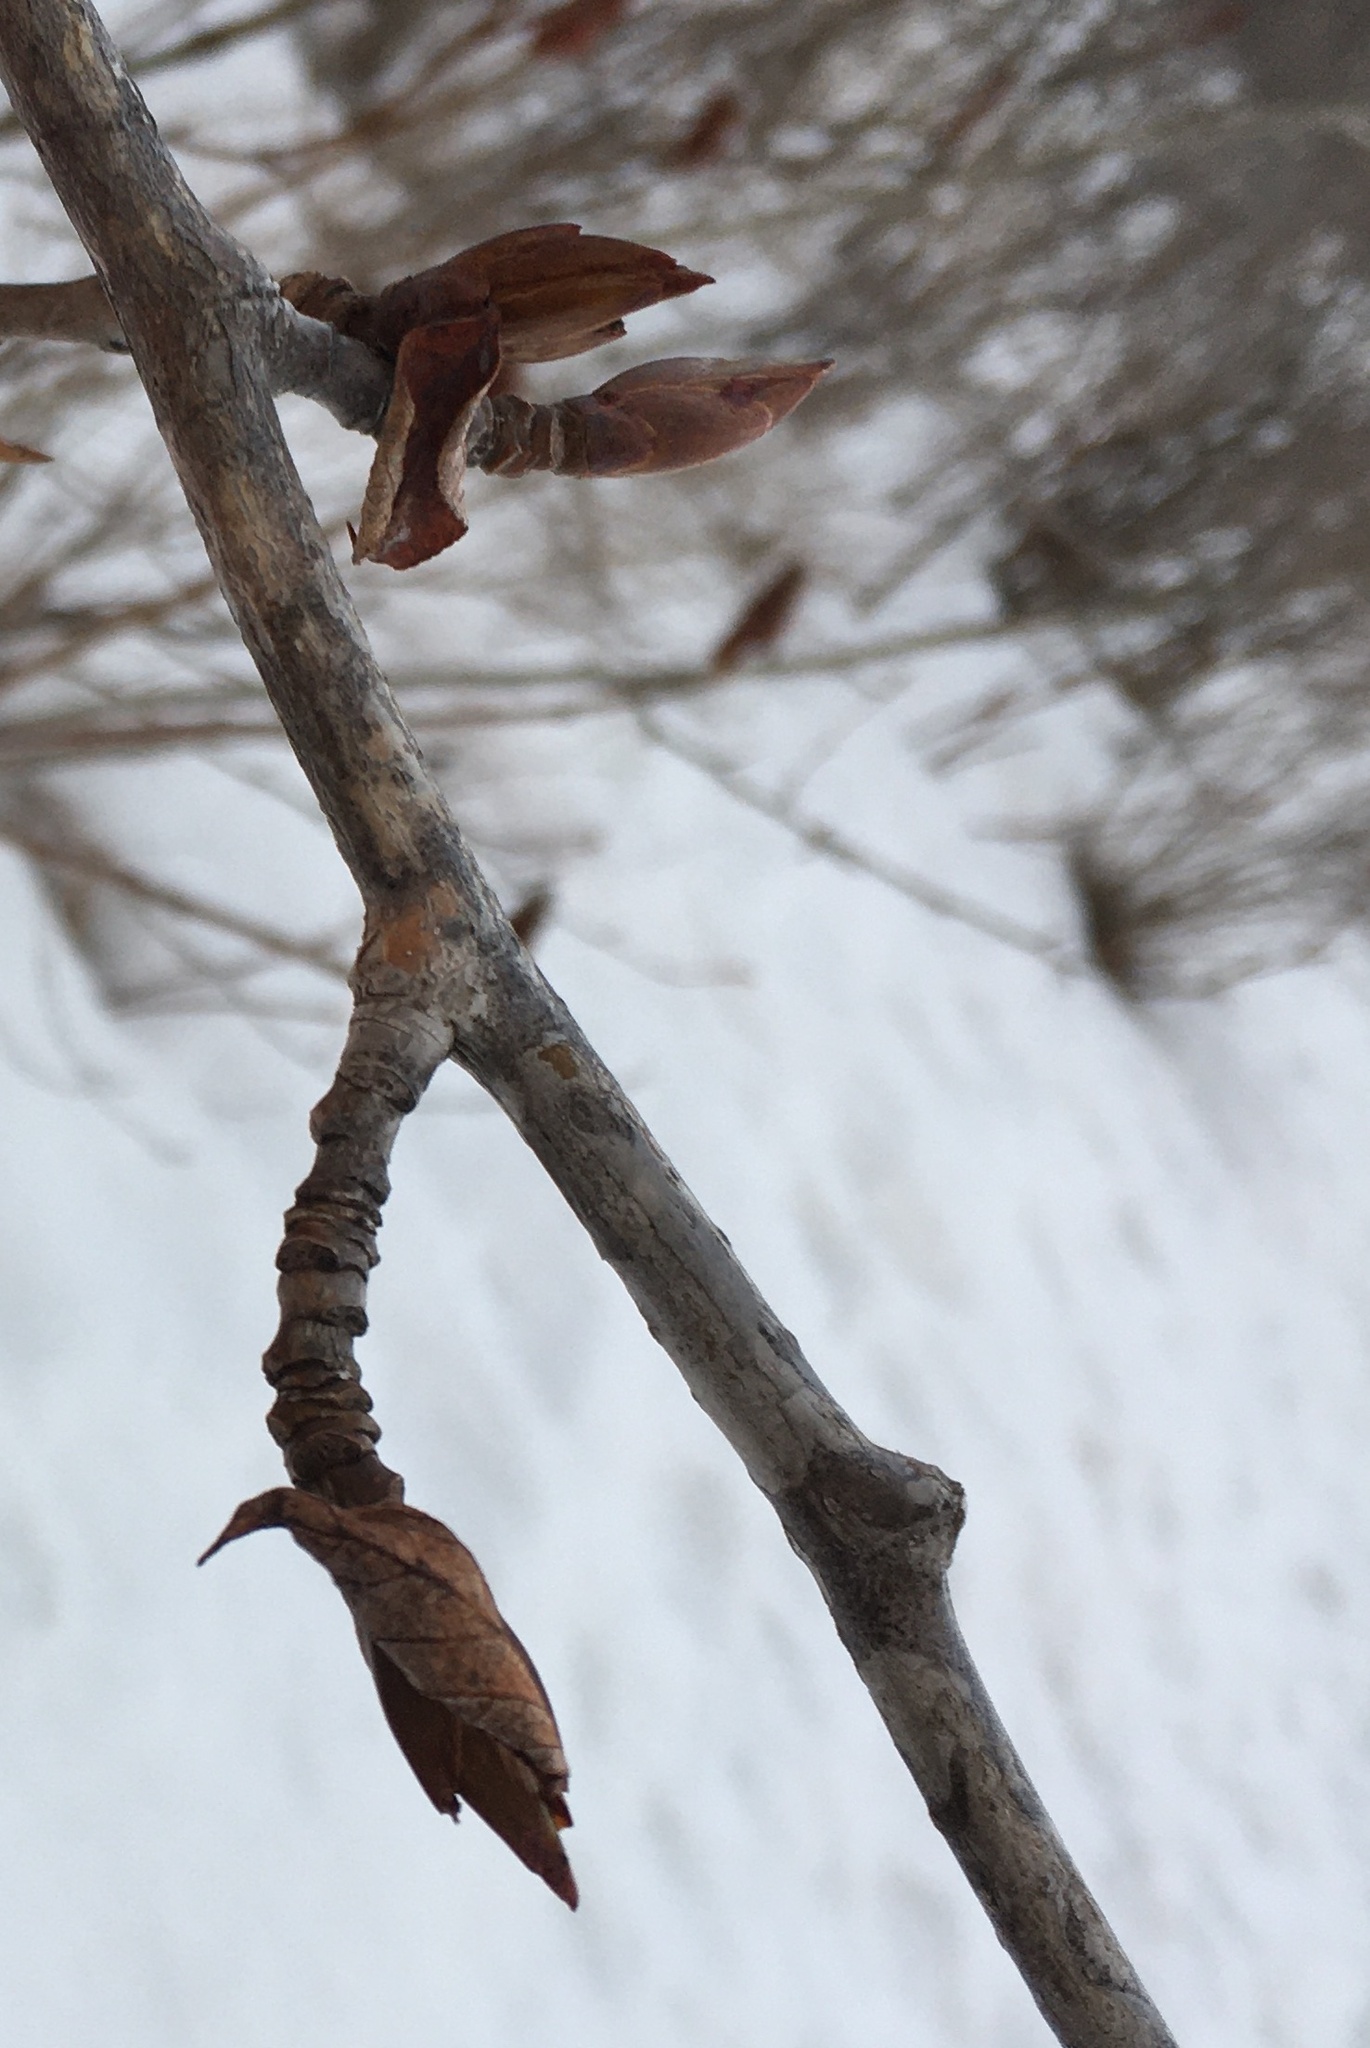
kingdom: Plantae
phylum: Tracheophyta
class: Magnoliopsida
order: Malpighiales
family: Salicaceae
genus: Populus
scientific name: Populus balsamifera
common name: Balsam poplar
